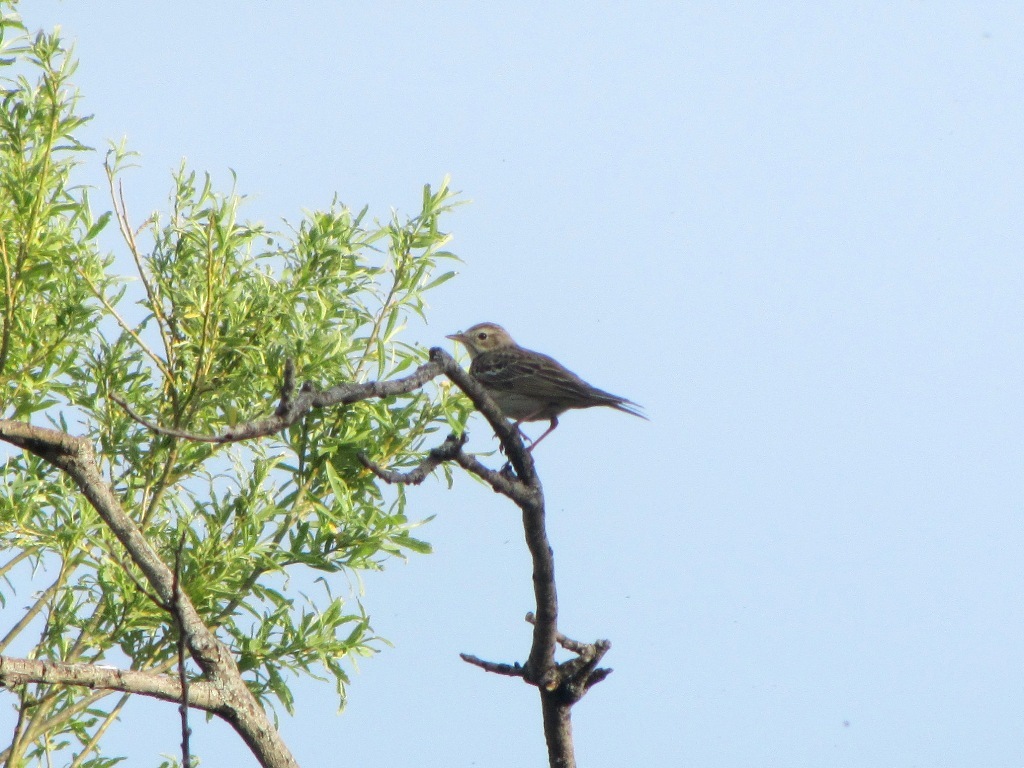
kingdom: Animalia
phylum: Chordata
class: Aves
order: Passeriformes
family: Motacillidae
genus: Anthus
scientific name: Anthus trivialis
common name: Tree pipit
